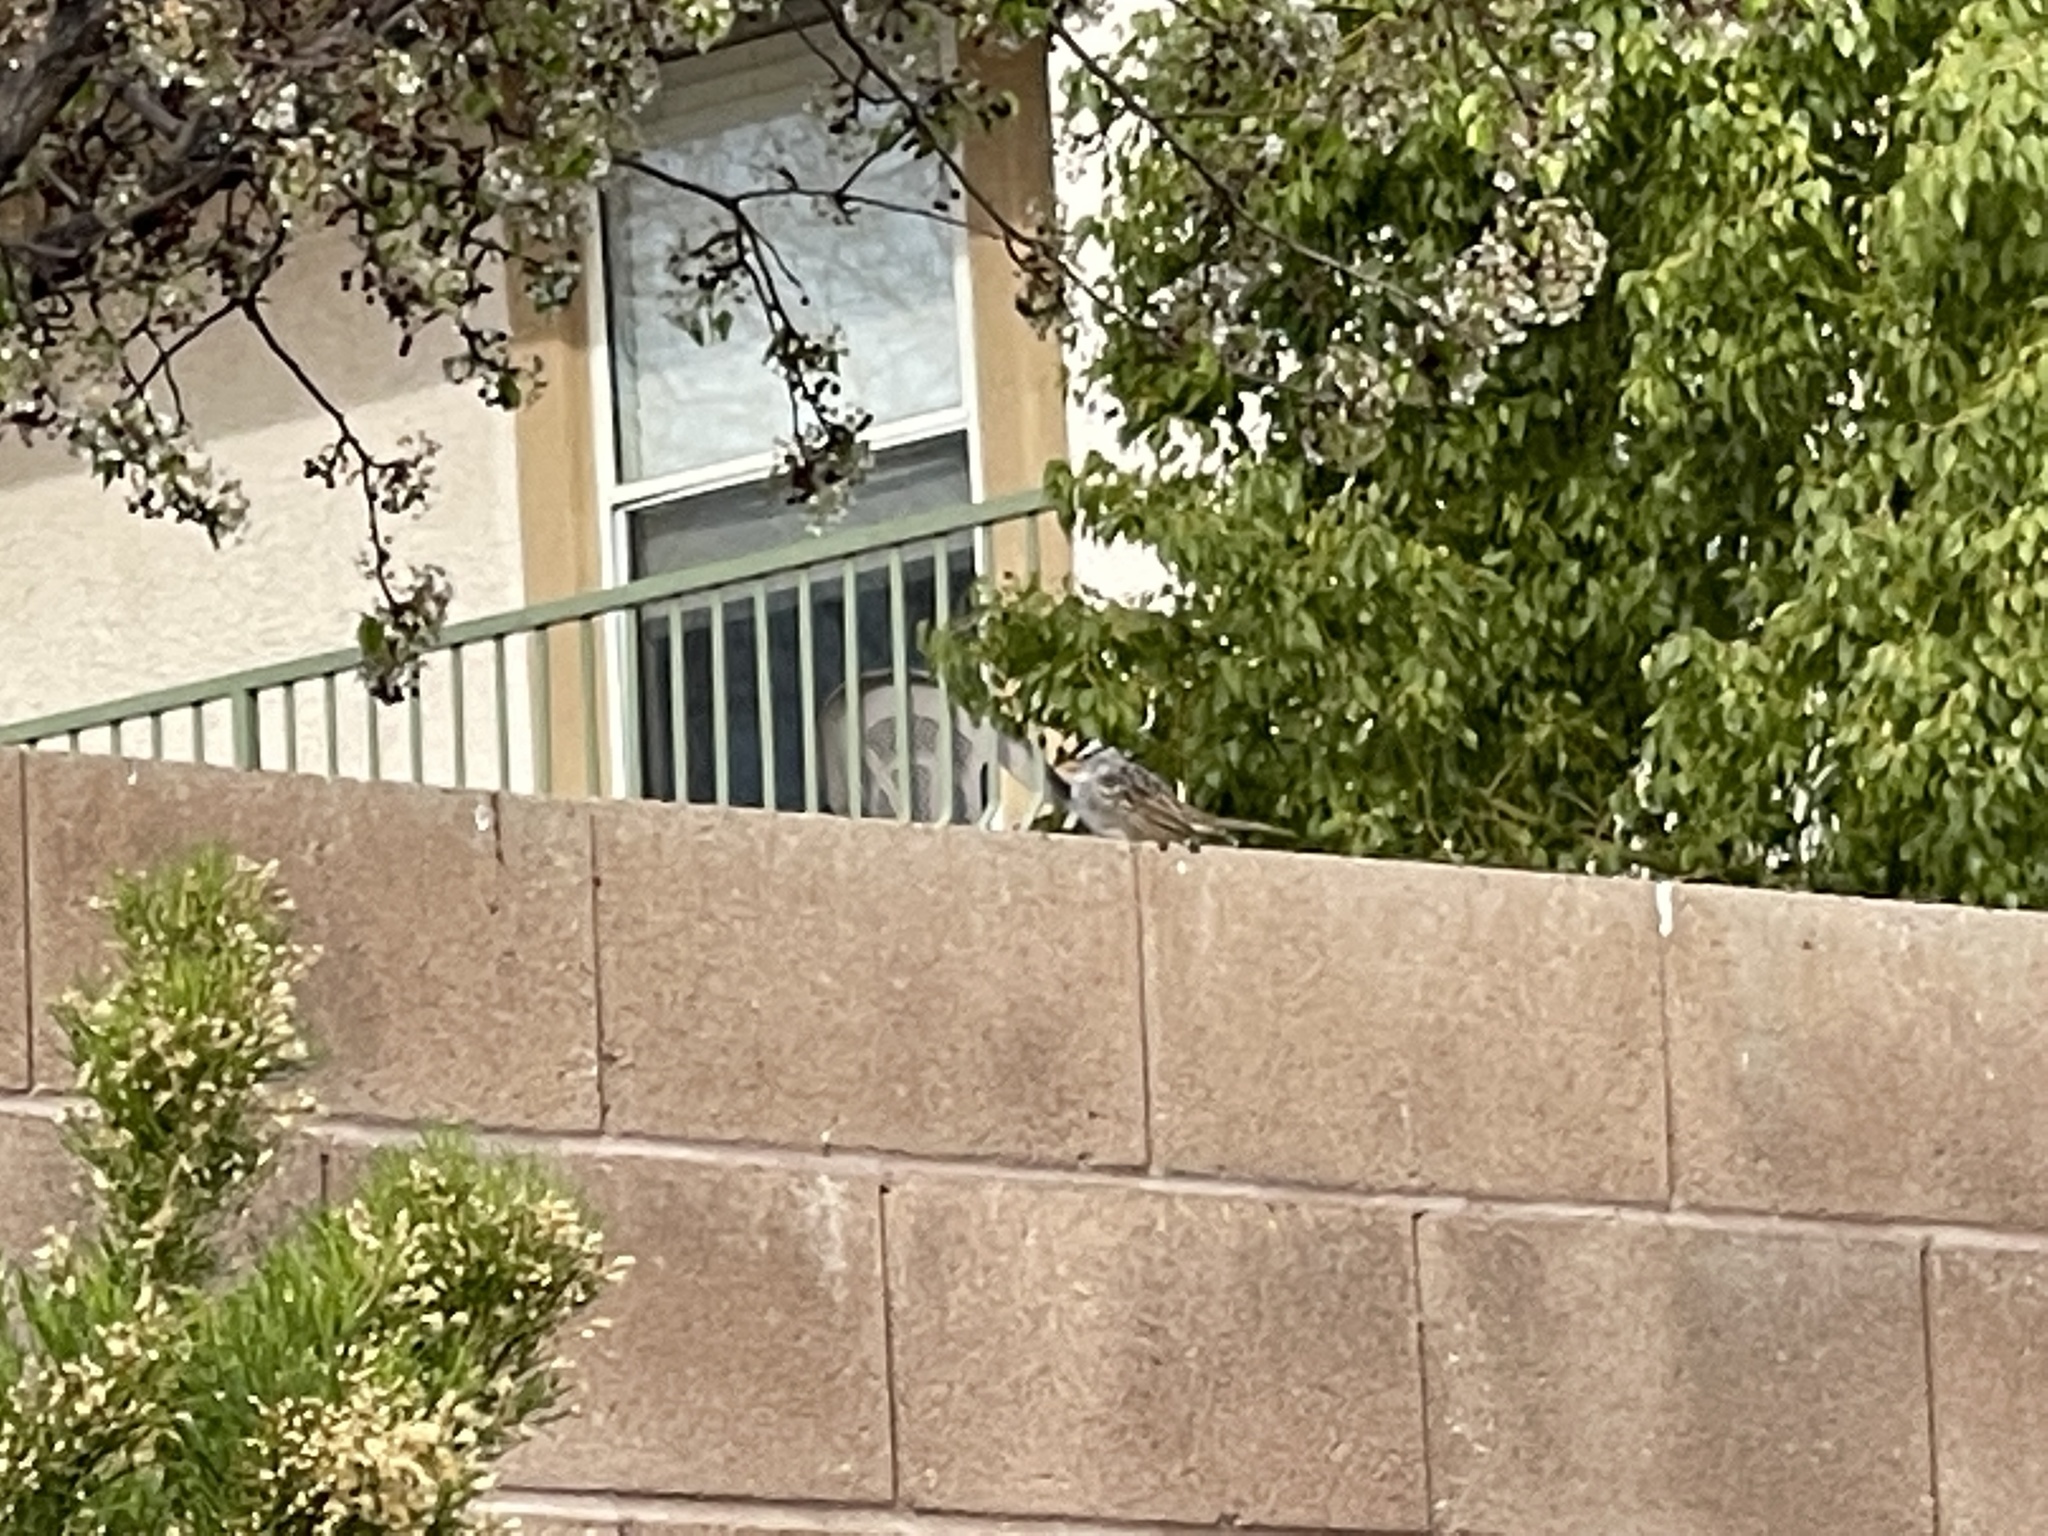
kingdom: Animalia
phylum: Chordata
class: Aves
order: Passeriformes
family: Passerellidae
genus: Zonotrichia
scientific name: Zonotrichia leucophrys
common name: White-crowned sparrow
